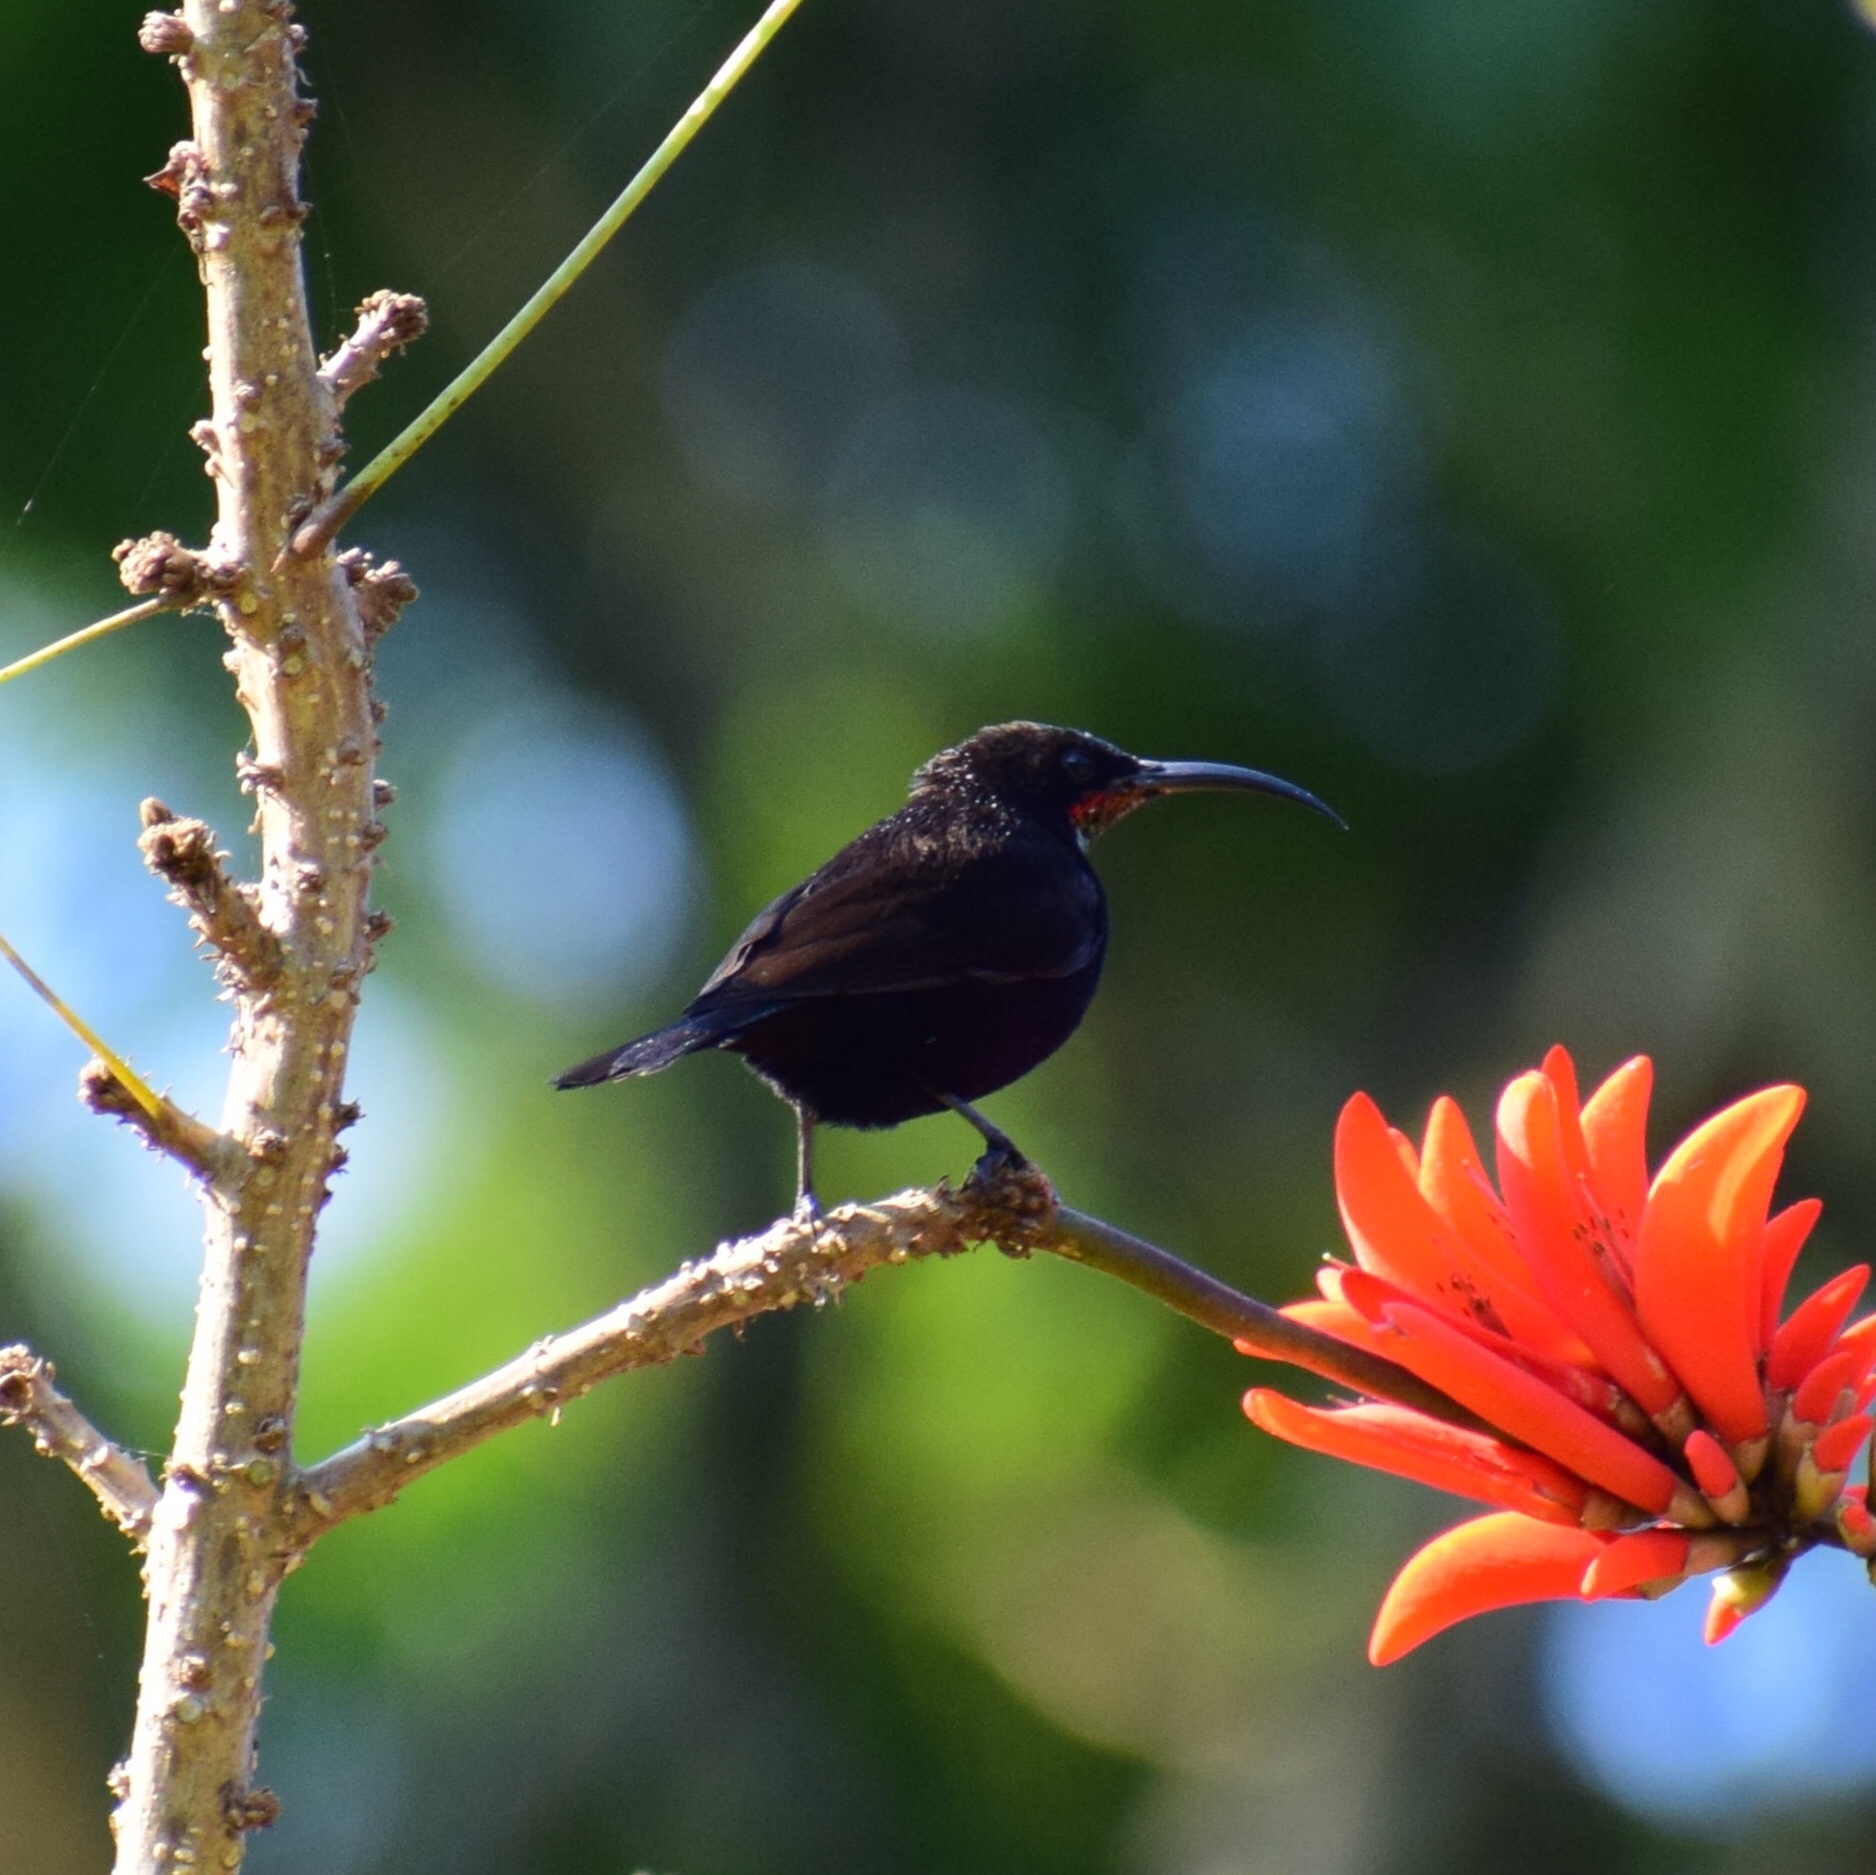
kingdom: Animalia
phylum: Chordata
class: Aves
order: Passeriformes
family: Nectariniidae
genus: Chalcomitra
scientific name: Chalcomitra amethystina
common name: Amethyst sunbird
